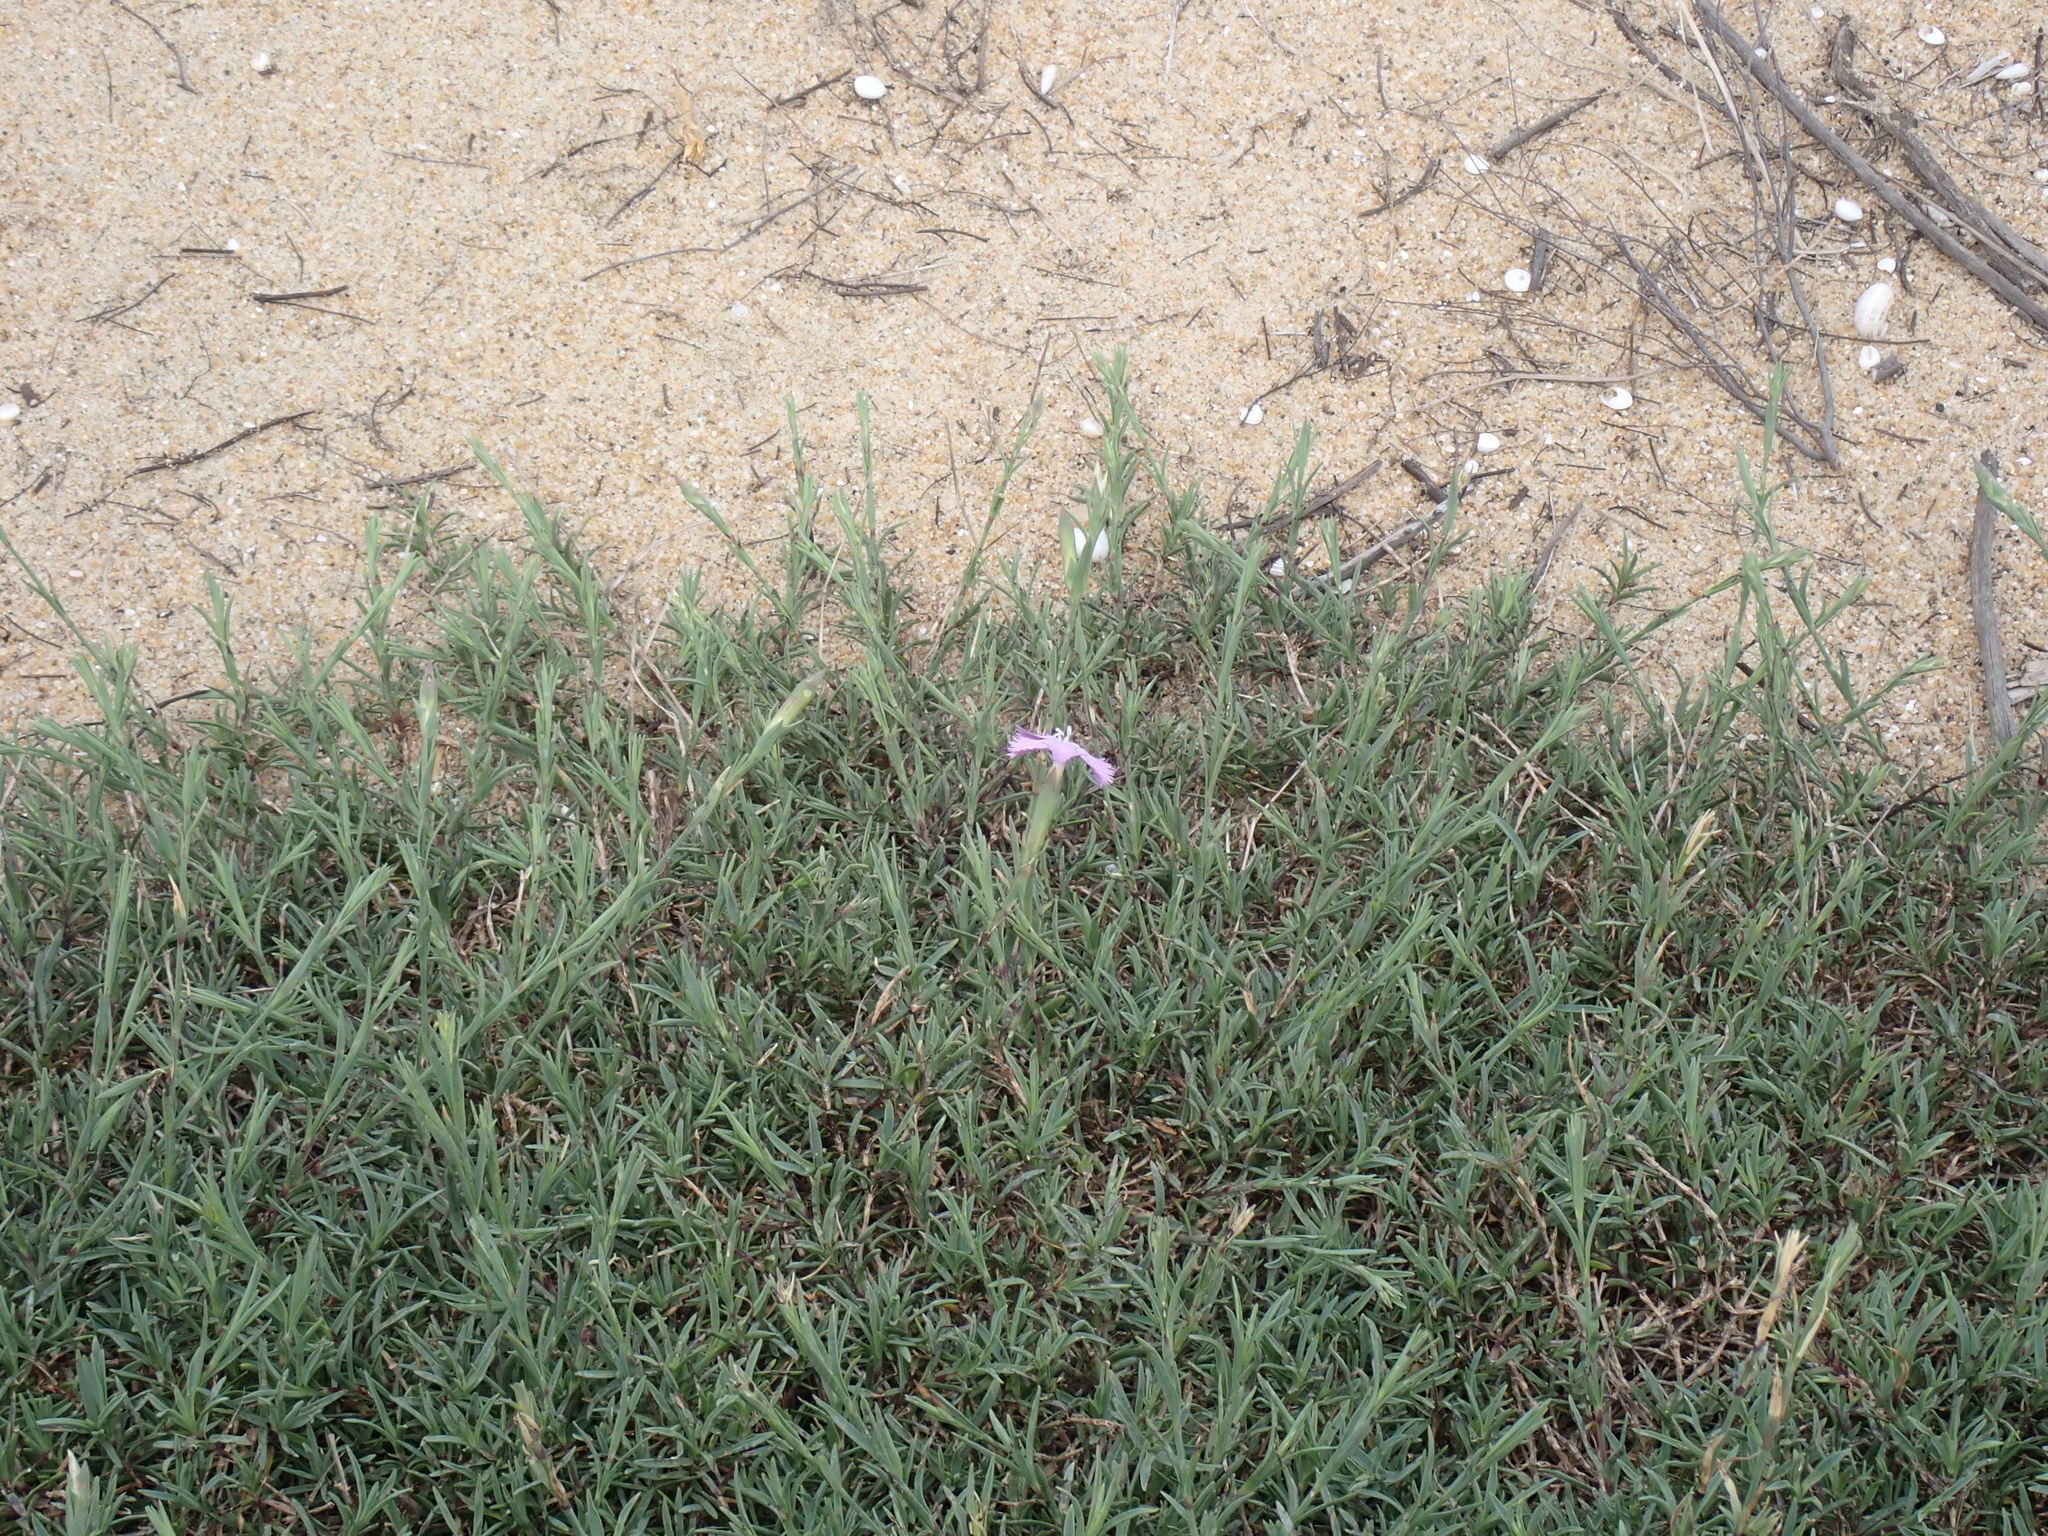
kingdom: Plantae
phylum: Tracheophyta
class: Magnoliopsida
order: Caryophyllales
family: Caryophyllaceae
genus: Dianthus
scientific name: Dianthus gallicus
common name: Jersey pink
